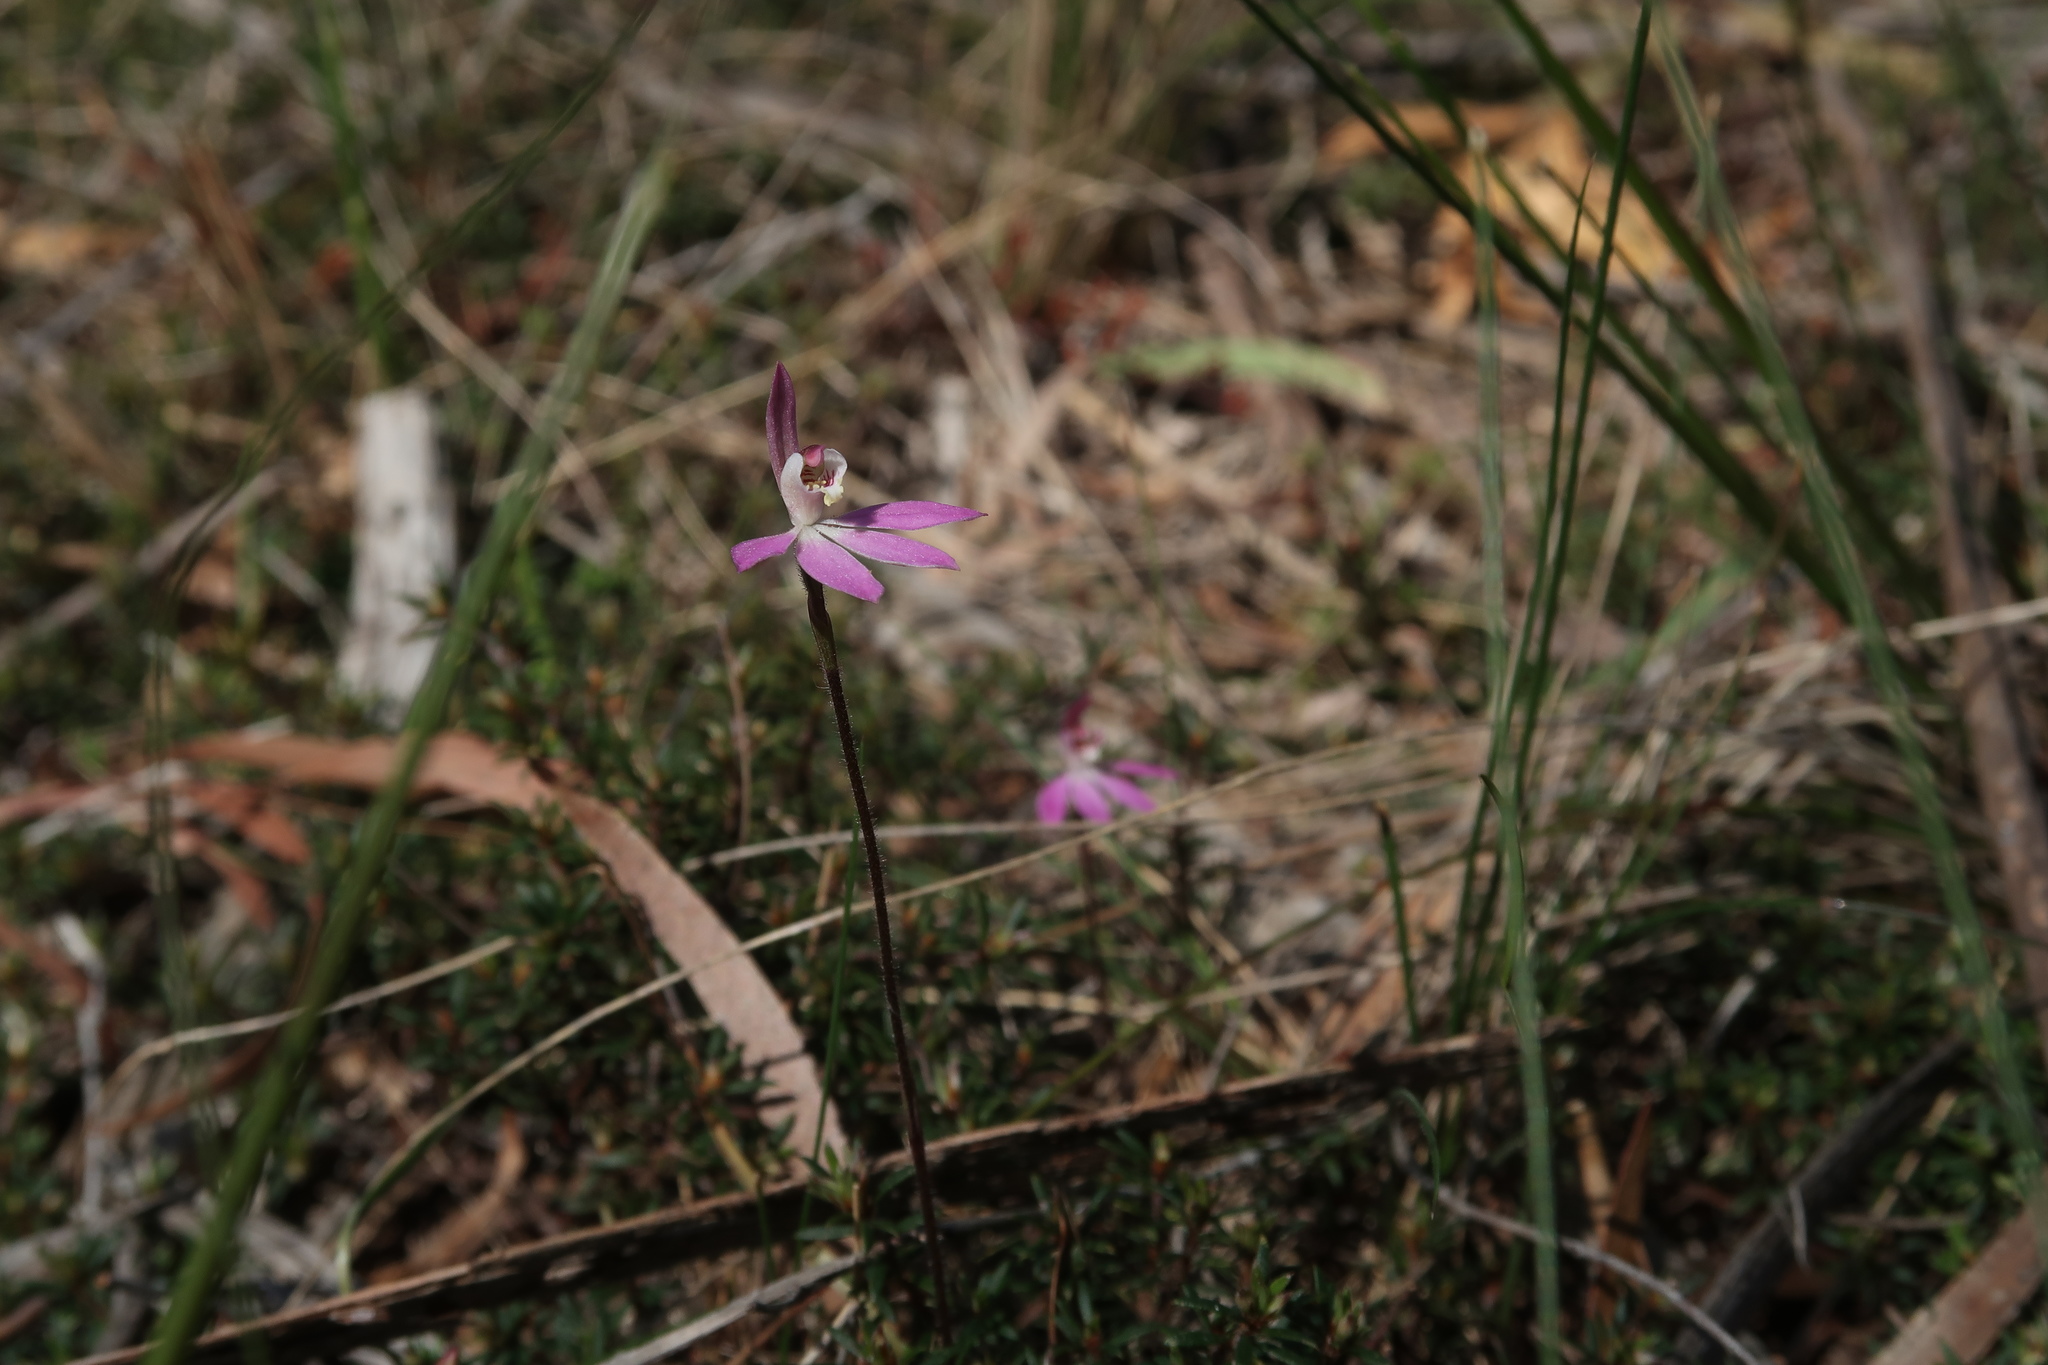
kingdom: Plantae
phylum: Tracheophyta
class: Liliopsida
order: Asparagales
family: Orchidaceae
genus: Caladenia
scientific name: Caladenia carnea
